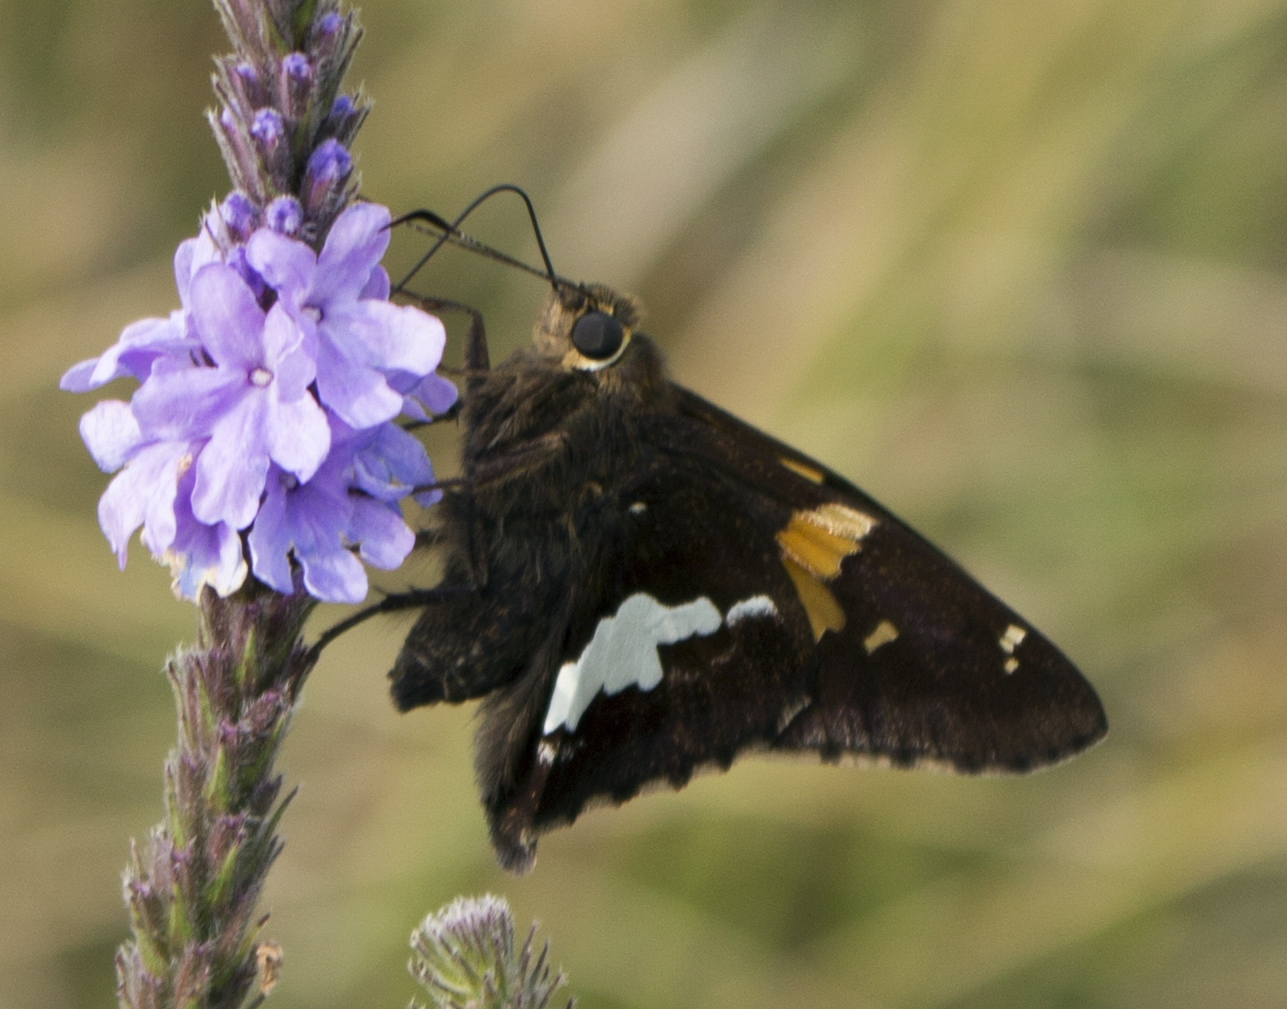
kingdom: Animalia
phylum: Arthropoda
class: Insecta
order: Lepidoptera
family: Hesperiidae
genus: Epargyreus
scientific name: Epargyreus clarus
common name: Silver-spotted skipper
